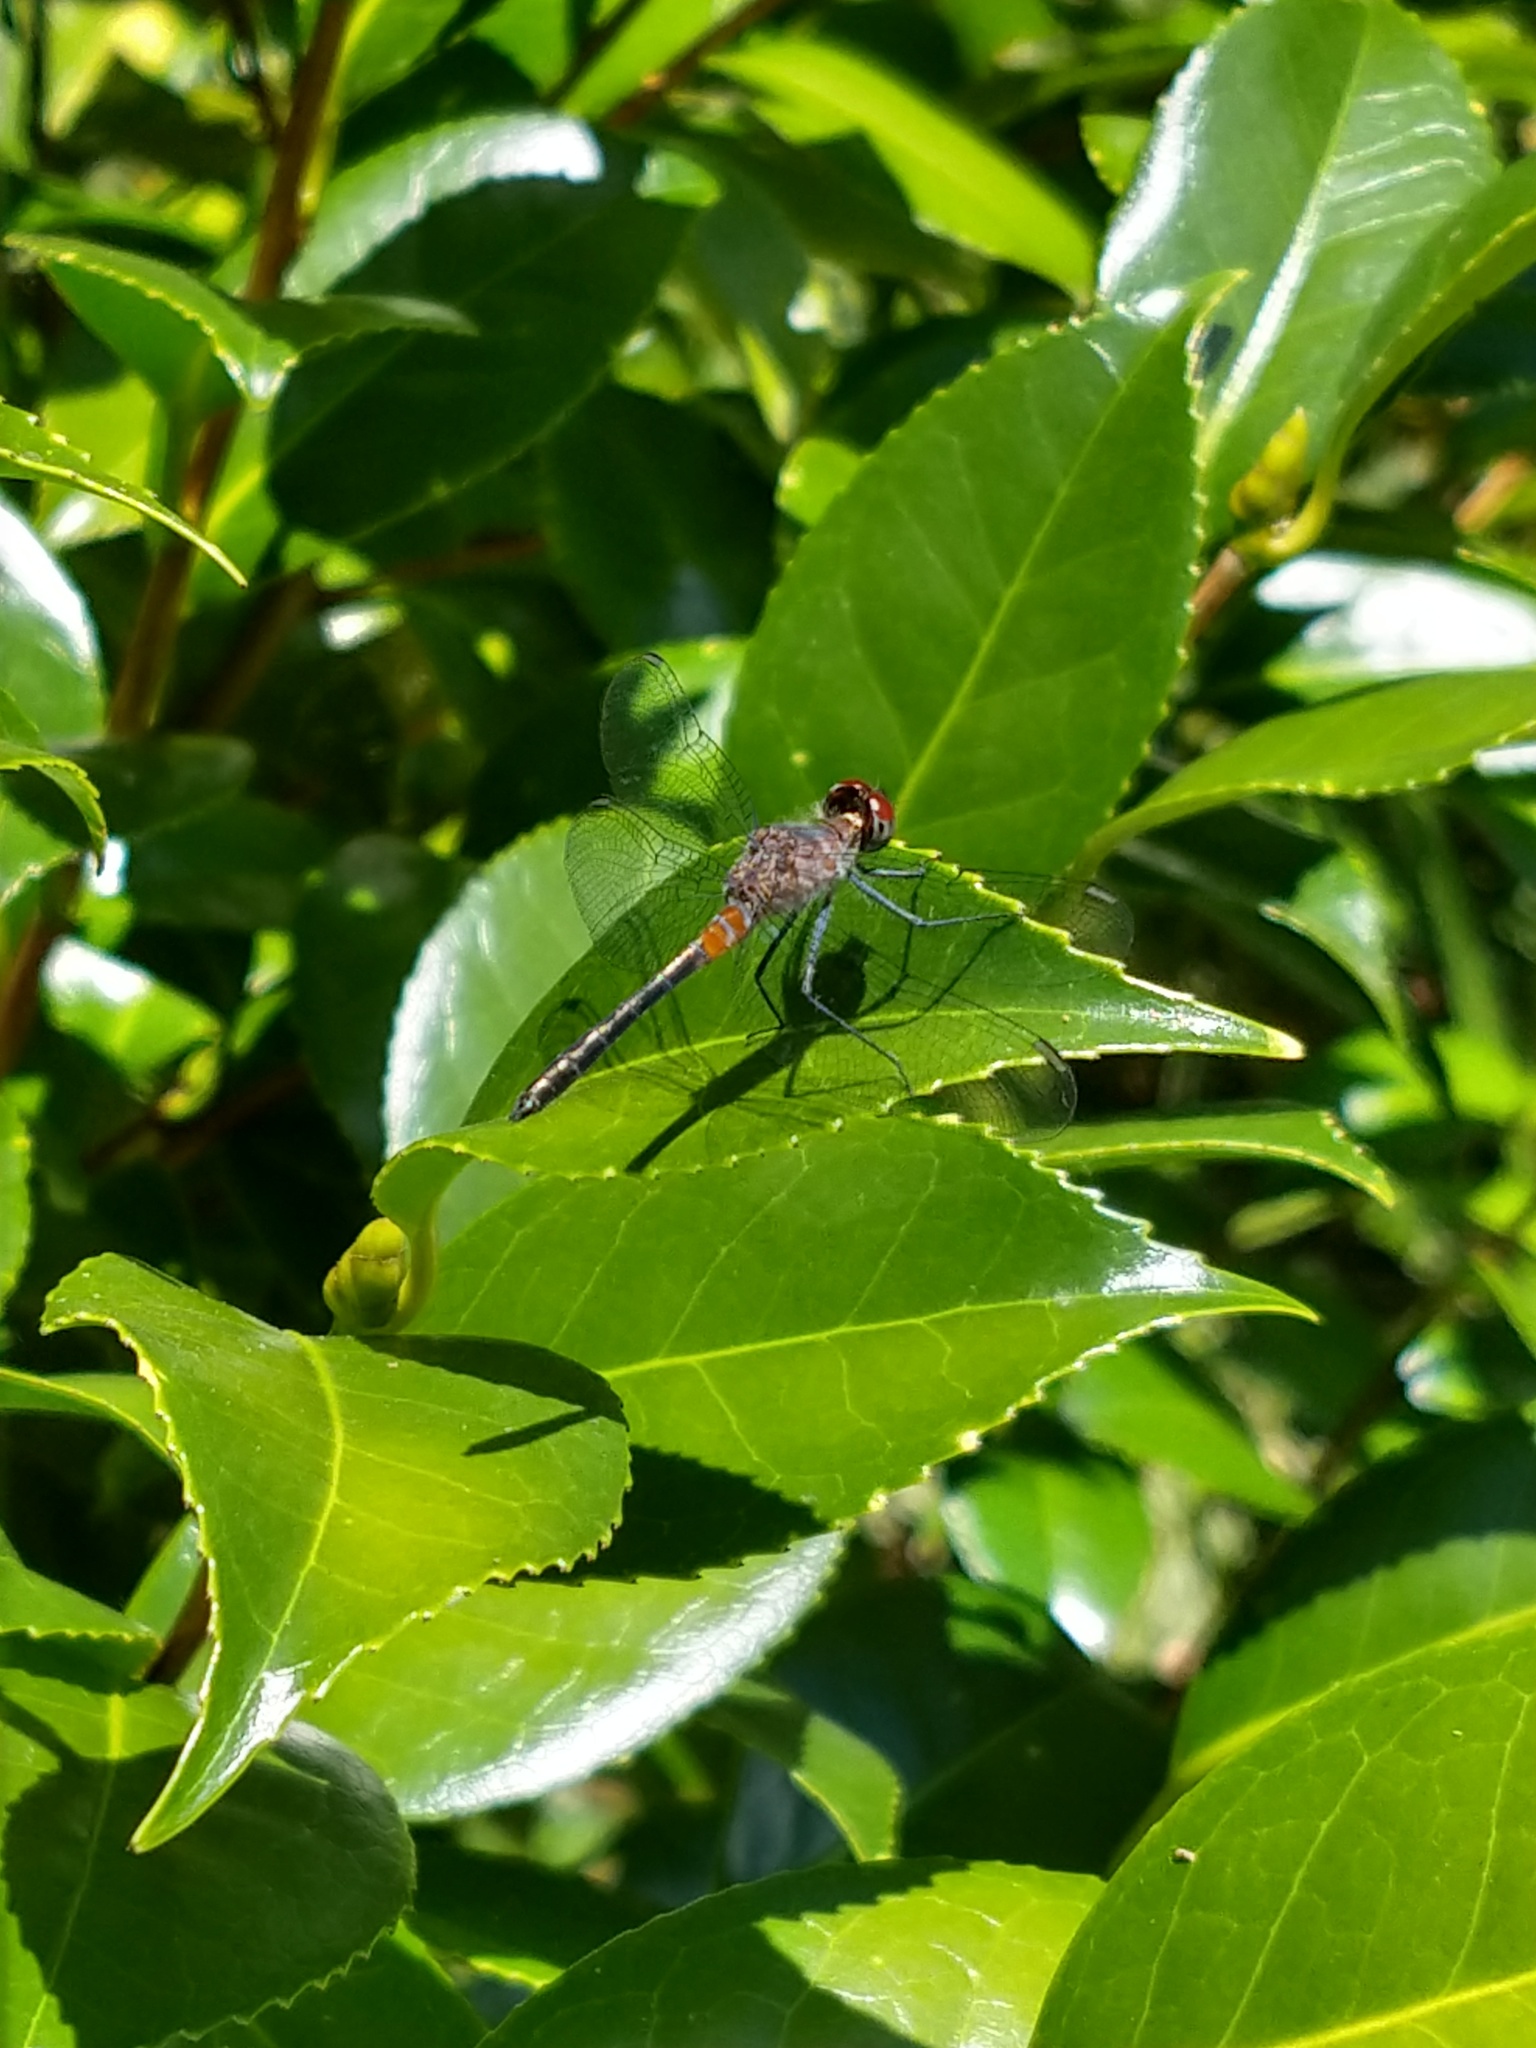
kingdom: Animalia
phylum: Arthropoda
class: Insecta
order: Odonata
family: Libellulidae
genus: Oligoclada
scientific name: Oligoclada rubribasalis
